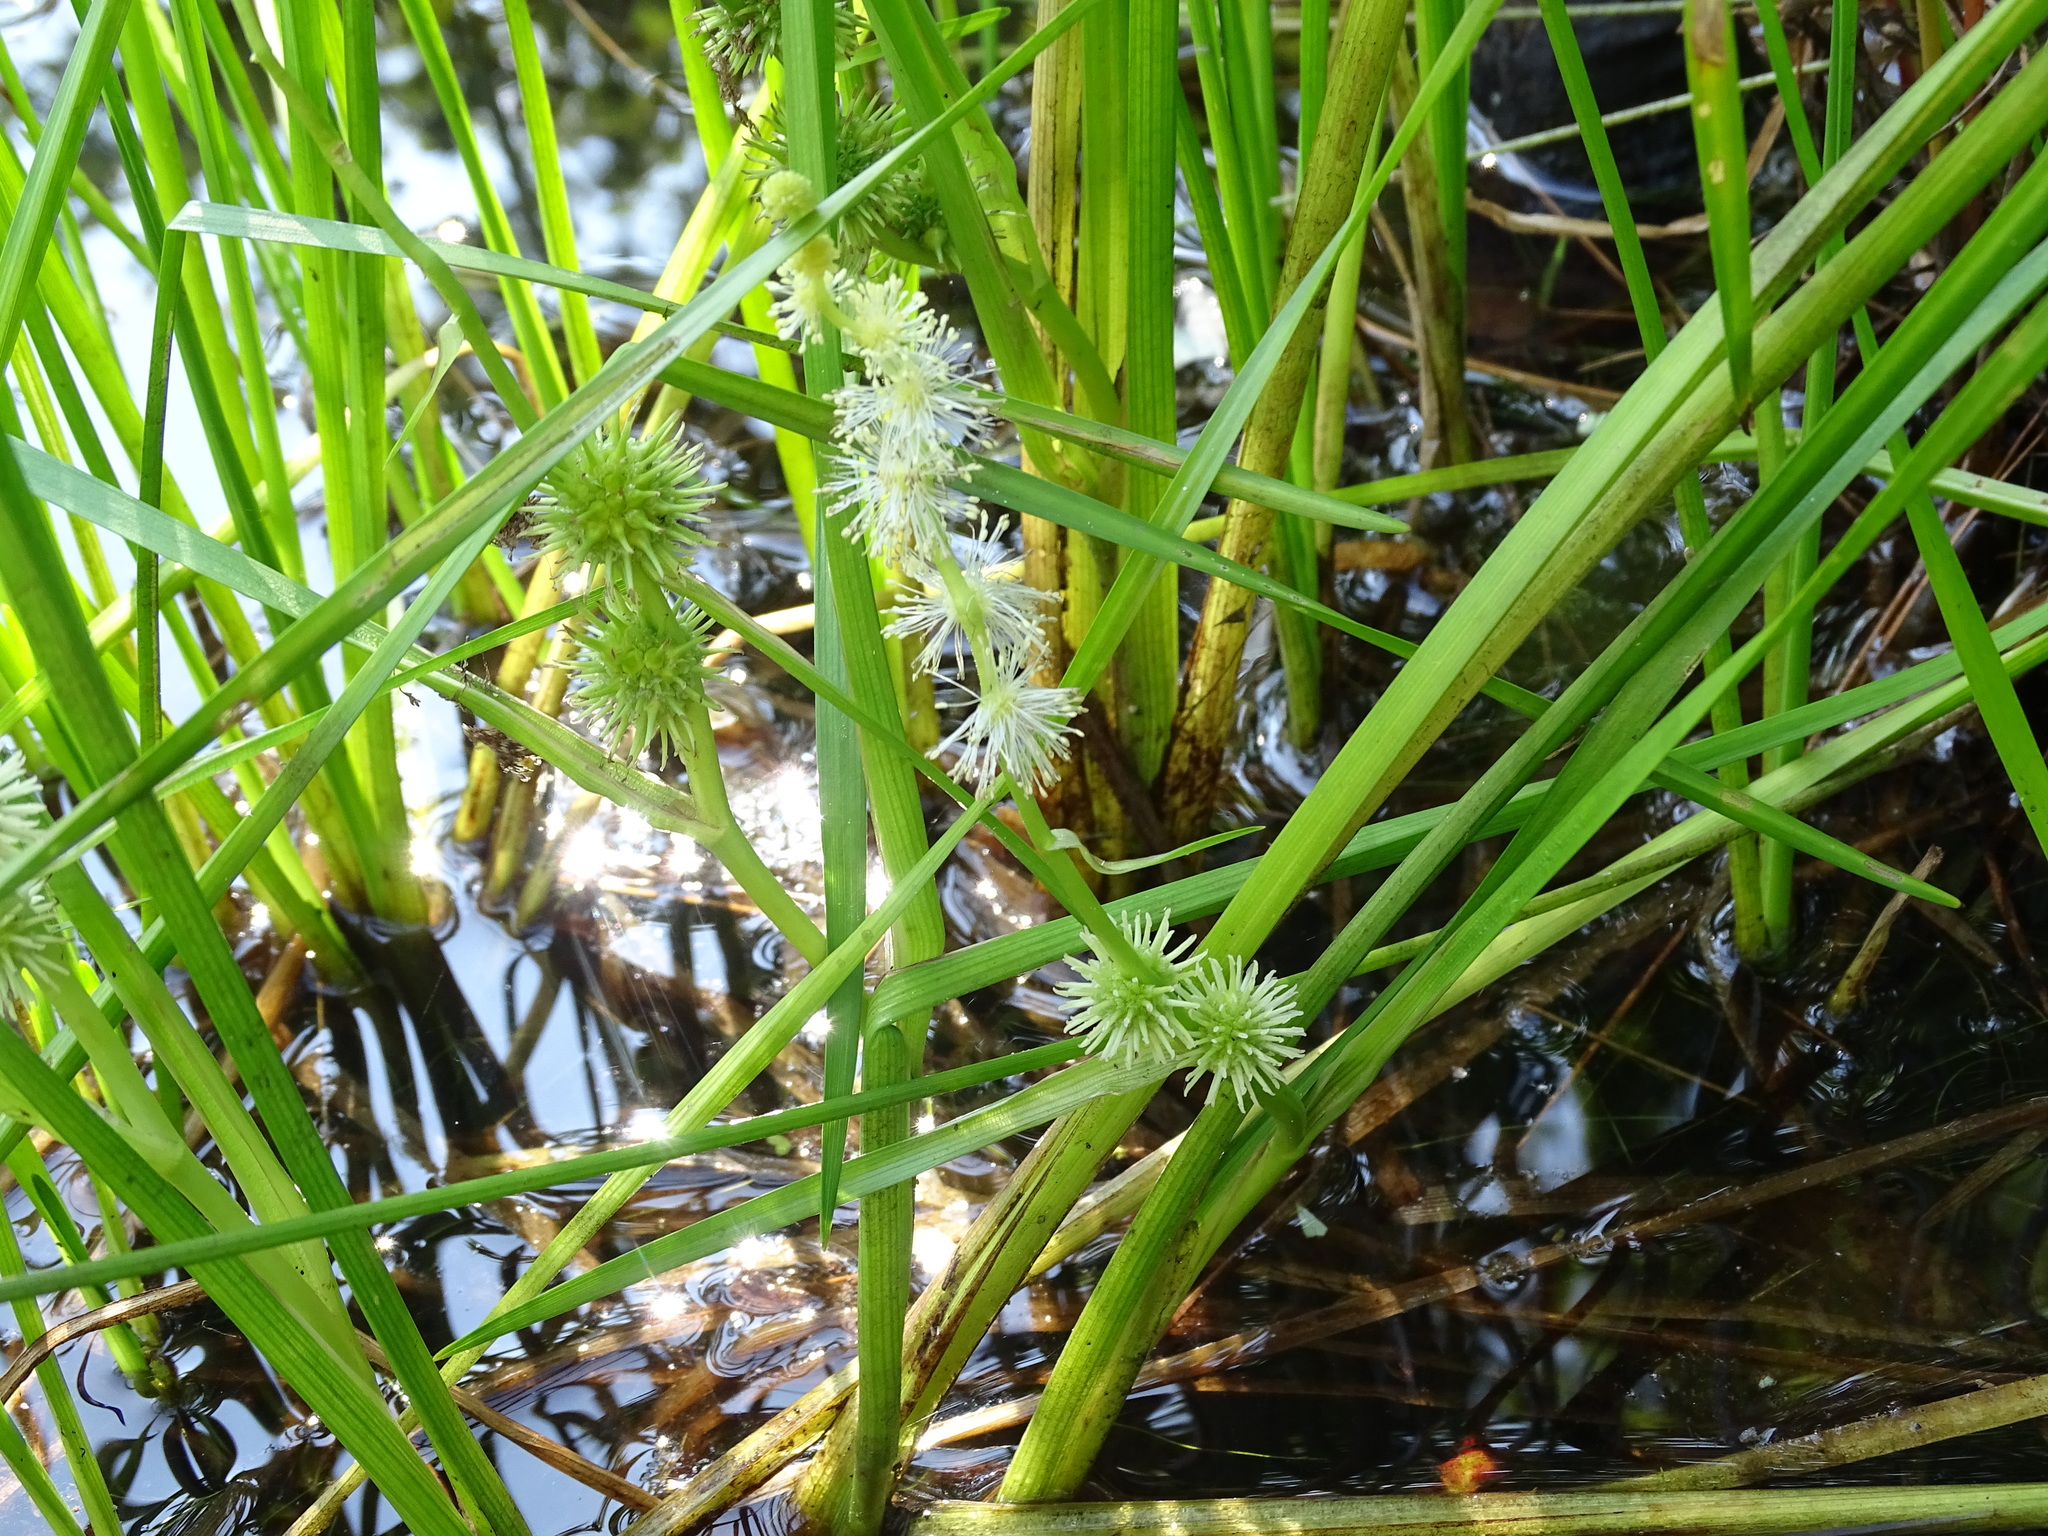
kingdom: Plantae
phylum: Tracheophyta
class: Liliopsida
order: Poales
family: Typhaceae
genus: Sparganium
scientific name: Sparganium americanum
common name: American burreed
